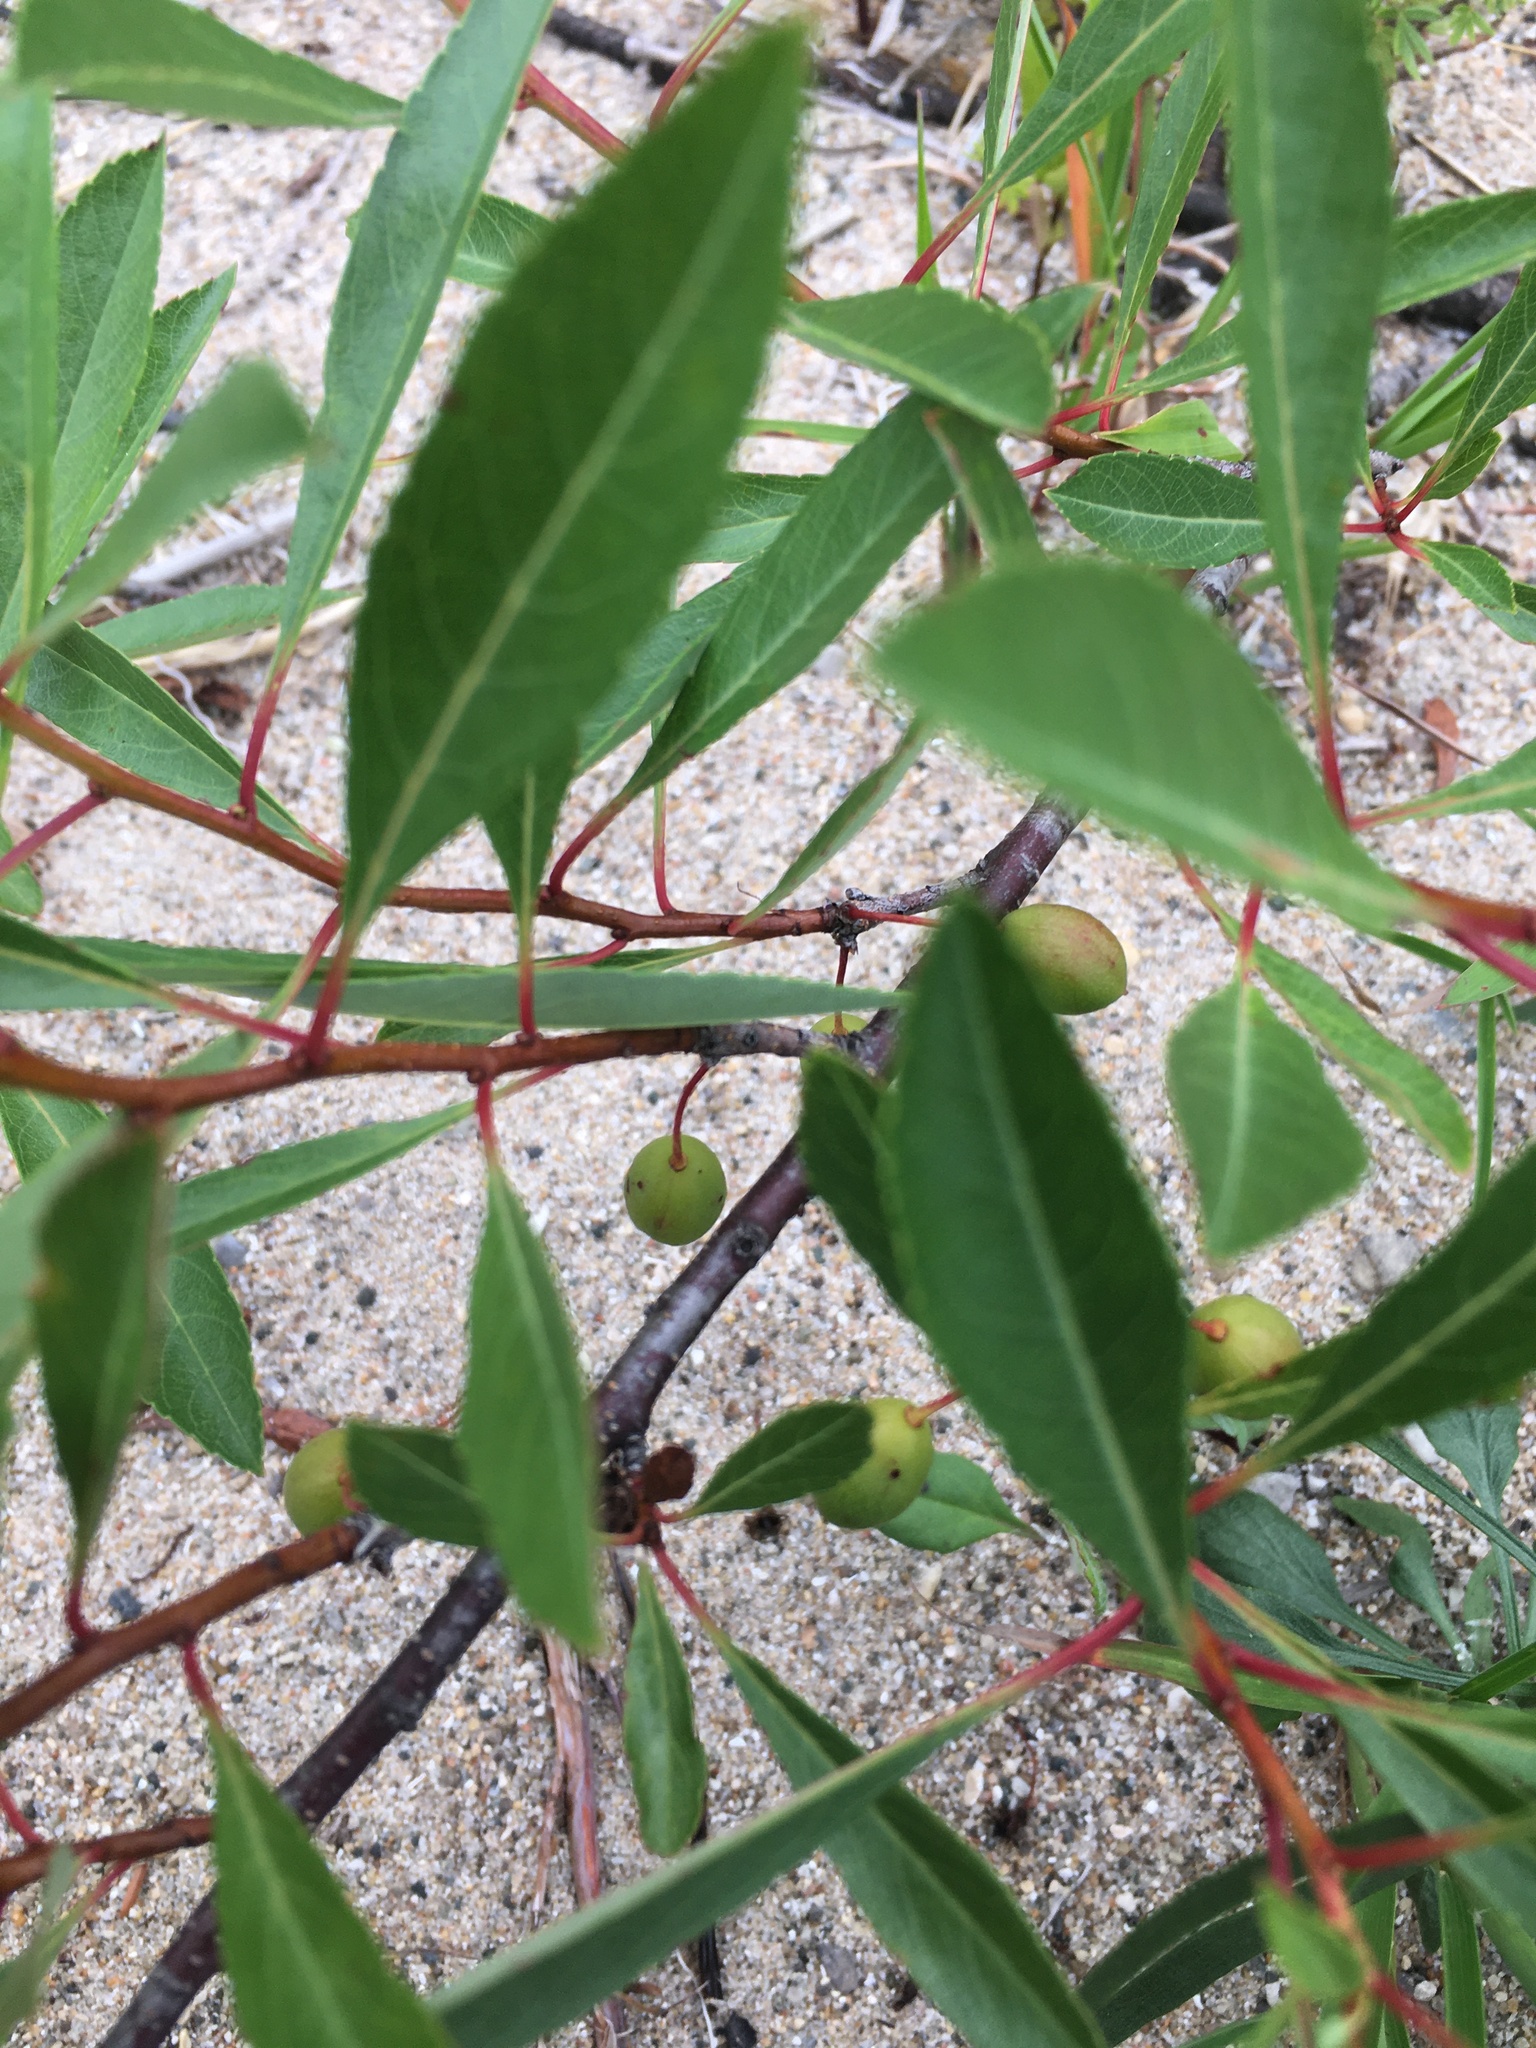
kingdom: Plantae
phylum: Tracheophyta
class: Magnoliopsida
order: Rosales
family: Rosaceae
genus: Prunus
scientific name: Prunus pumila
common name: Dwarf cherry
